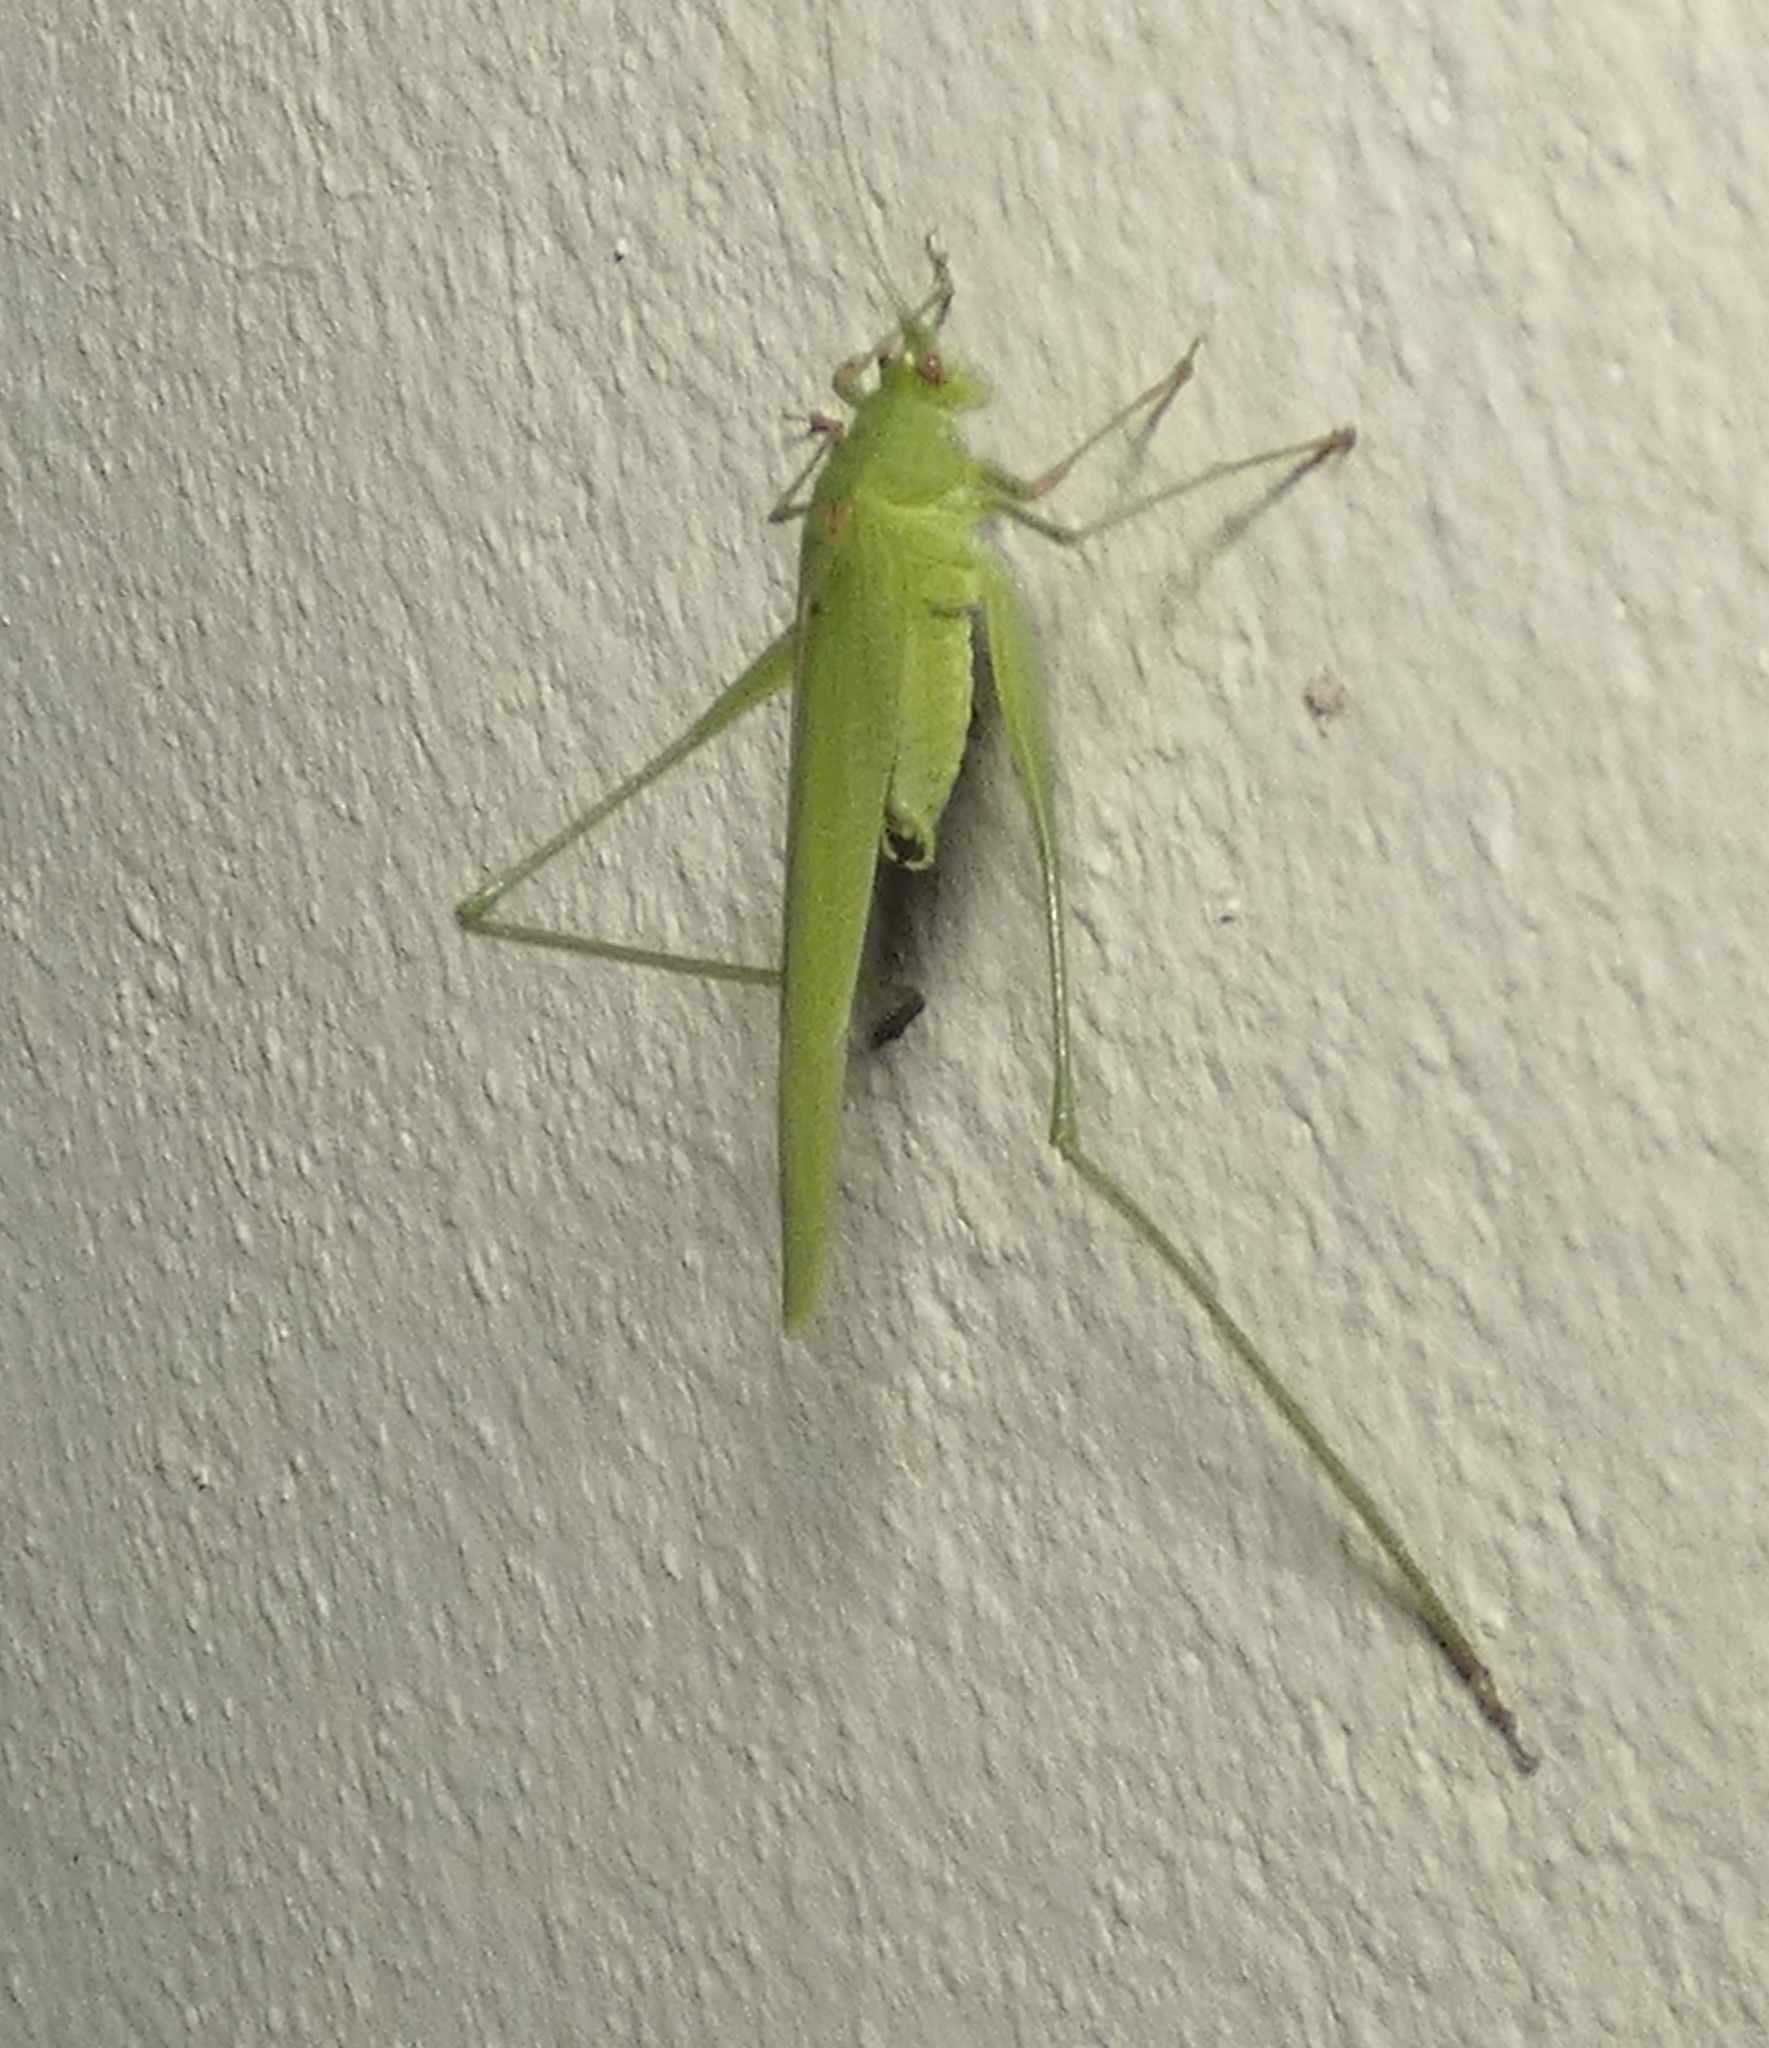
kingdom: Animalia
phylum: Arthropoda
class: Insecta
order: Orthoptera
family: Tettigoniidae
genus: Phaneroptera
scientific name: Phaneroptera quinquesignata
